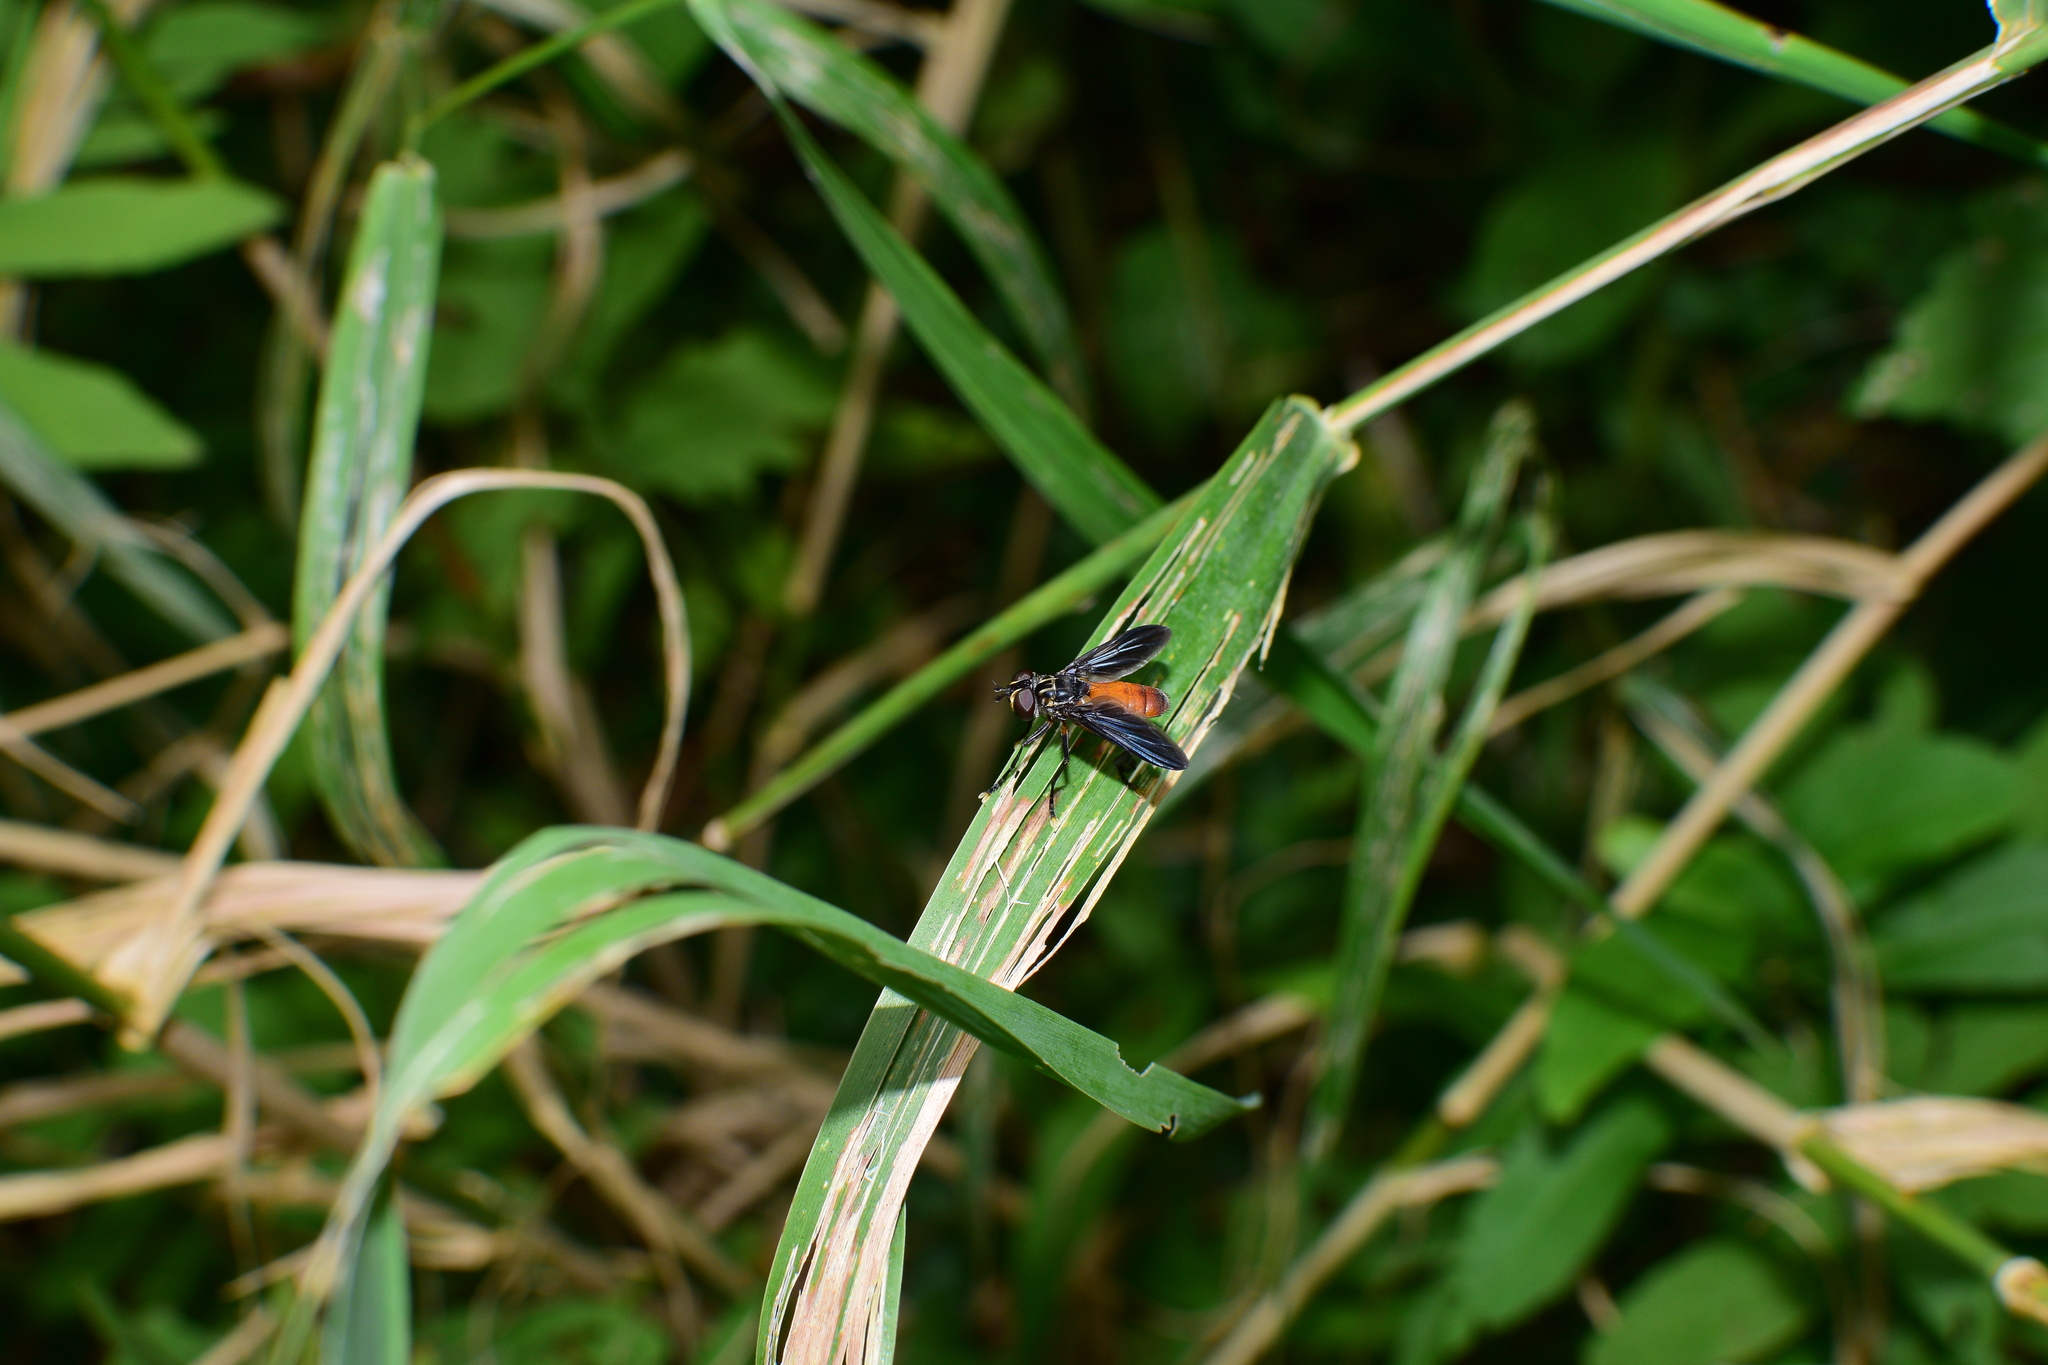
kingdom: Animalia
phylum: Arthropoda
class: Insecta
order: Diptera
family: Tachinidae
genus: Trichopoda
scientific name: Trichopoda pennipes
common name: Tachinid fly
